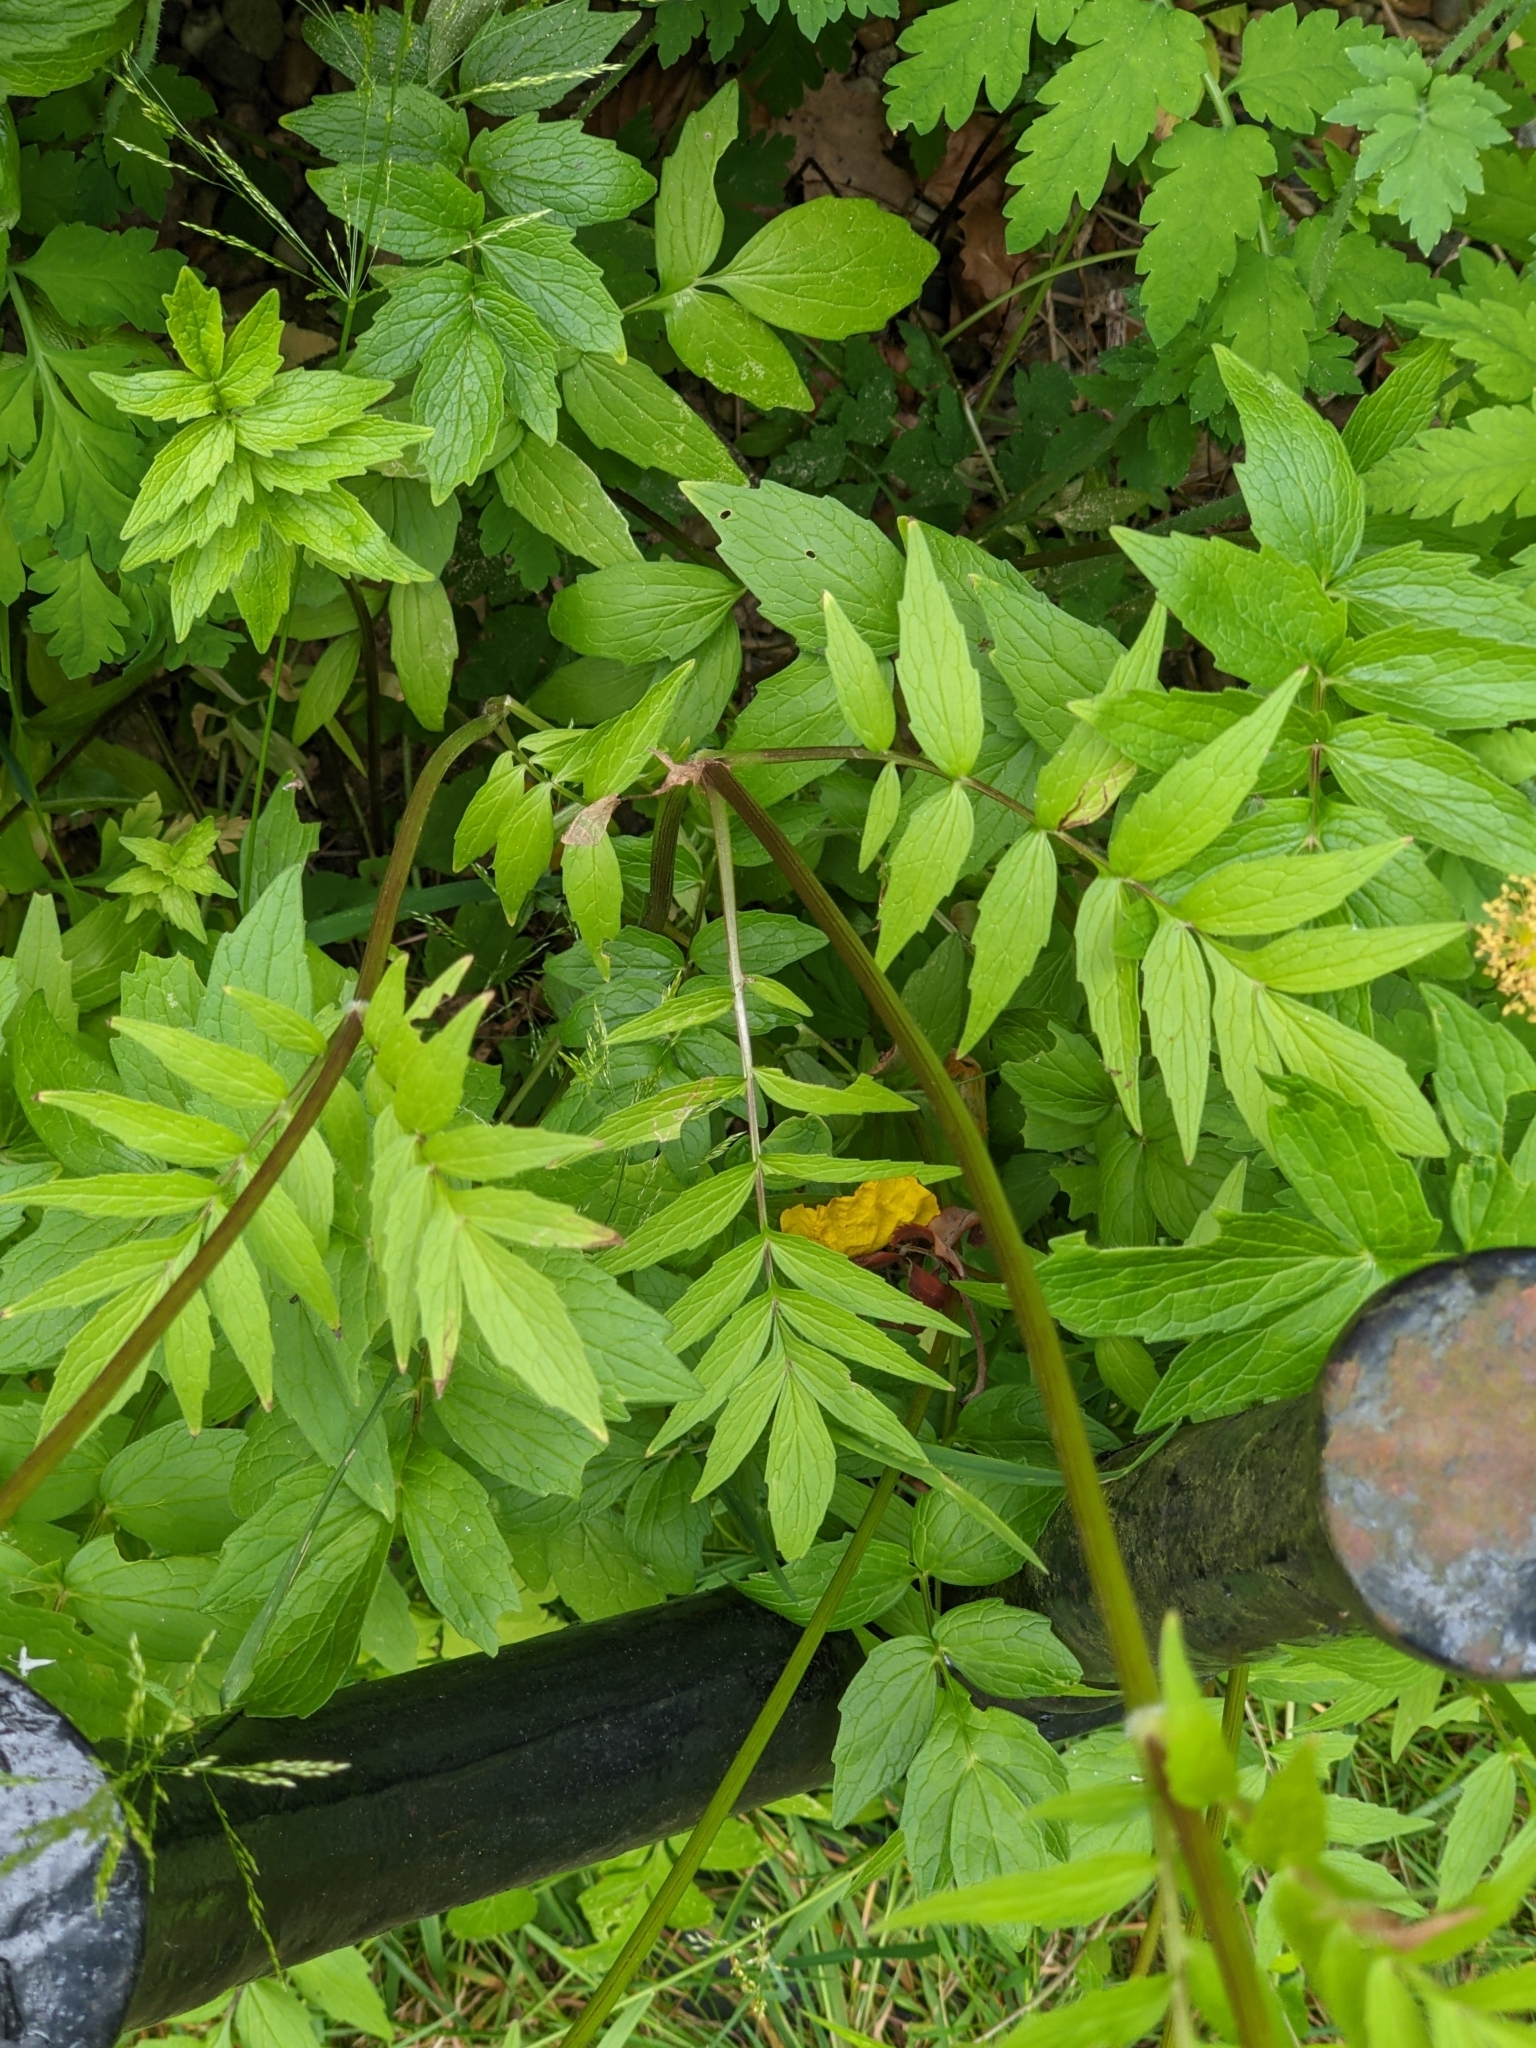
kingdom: Plantae
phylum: Tracheophyta
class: Magnoliopsida
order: Dipsacales
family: Caprifoliaceae
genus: Valeriana
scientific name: Valeriana officinalis
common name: Common valerian
